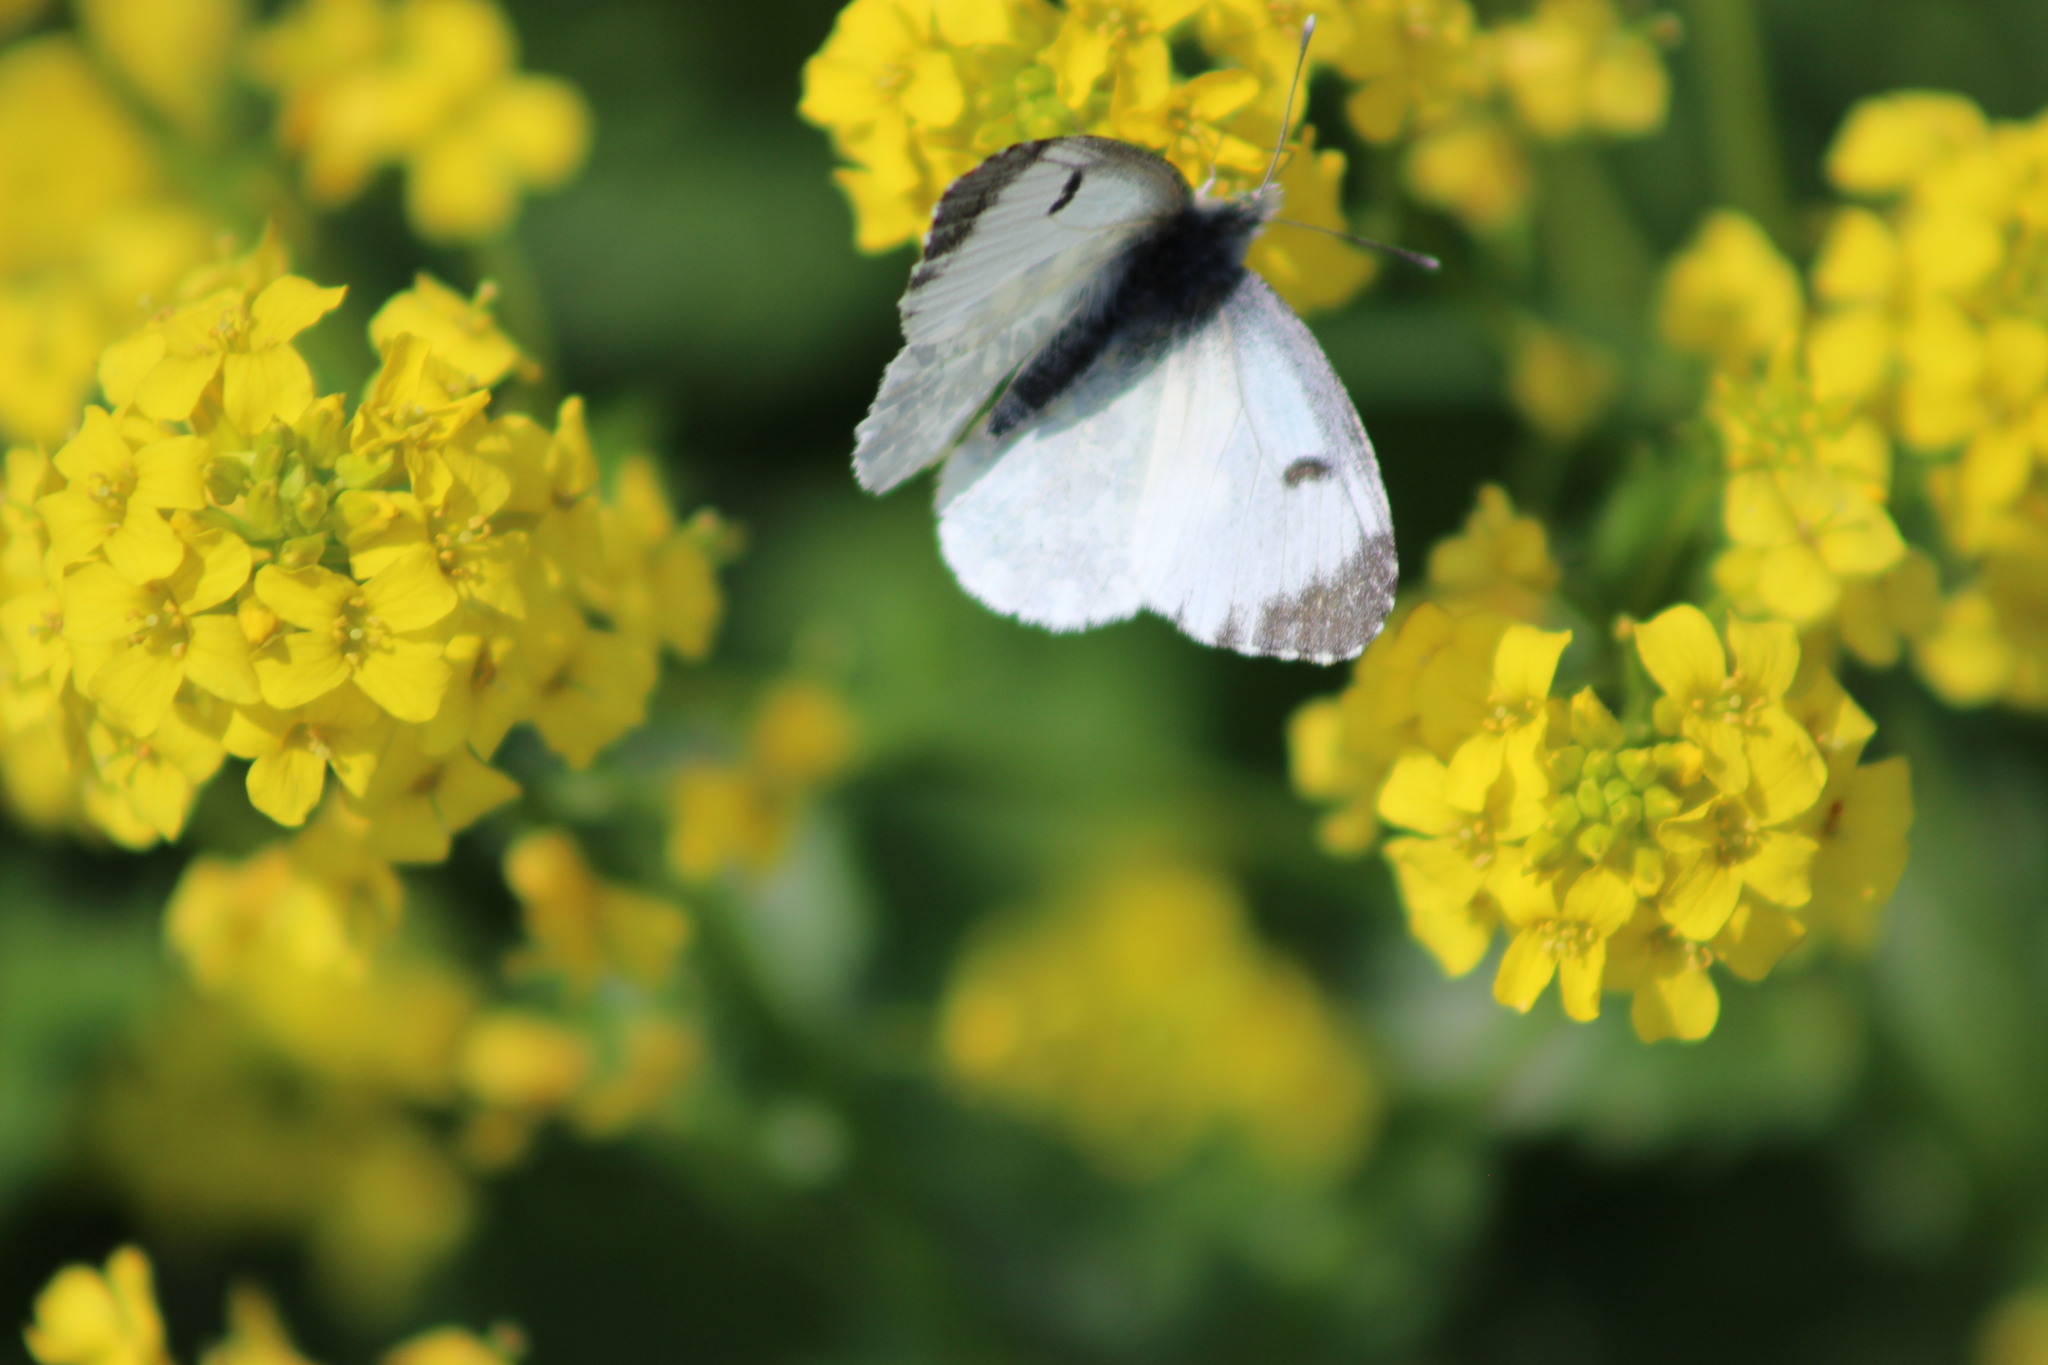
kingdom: Animalia
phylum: Arthropoda
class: Insecta
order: Lepidoptera
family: Pieridae
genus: Anthocharis
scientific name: Anthocharis cardamines
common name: Orange-tip
